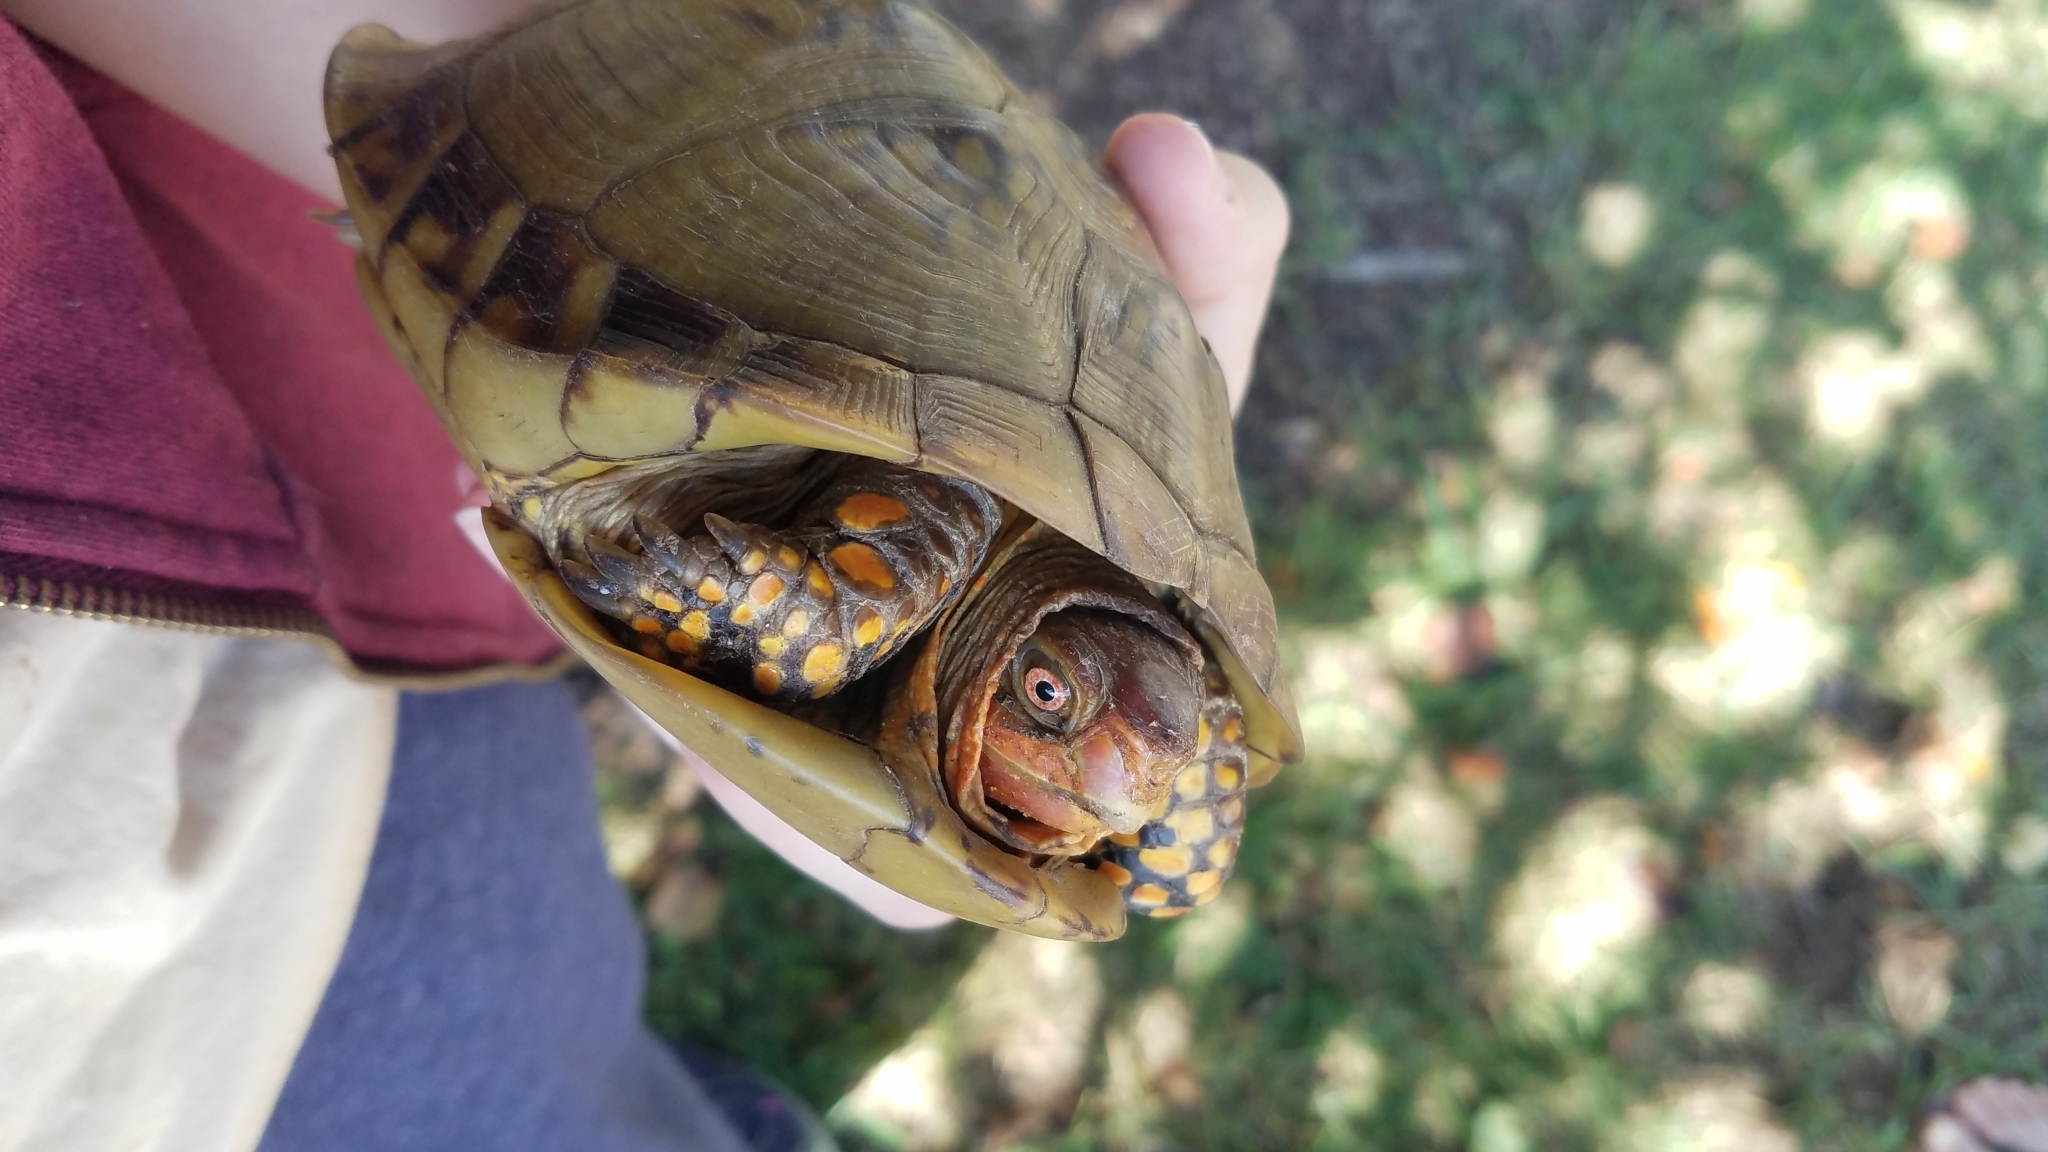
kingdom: Animalia
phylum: Chordata
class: Testudines
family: Emydidae
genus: Terrapene
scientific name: Terrapene carolina
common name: Common box turtle
